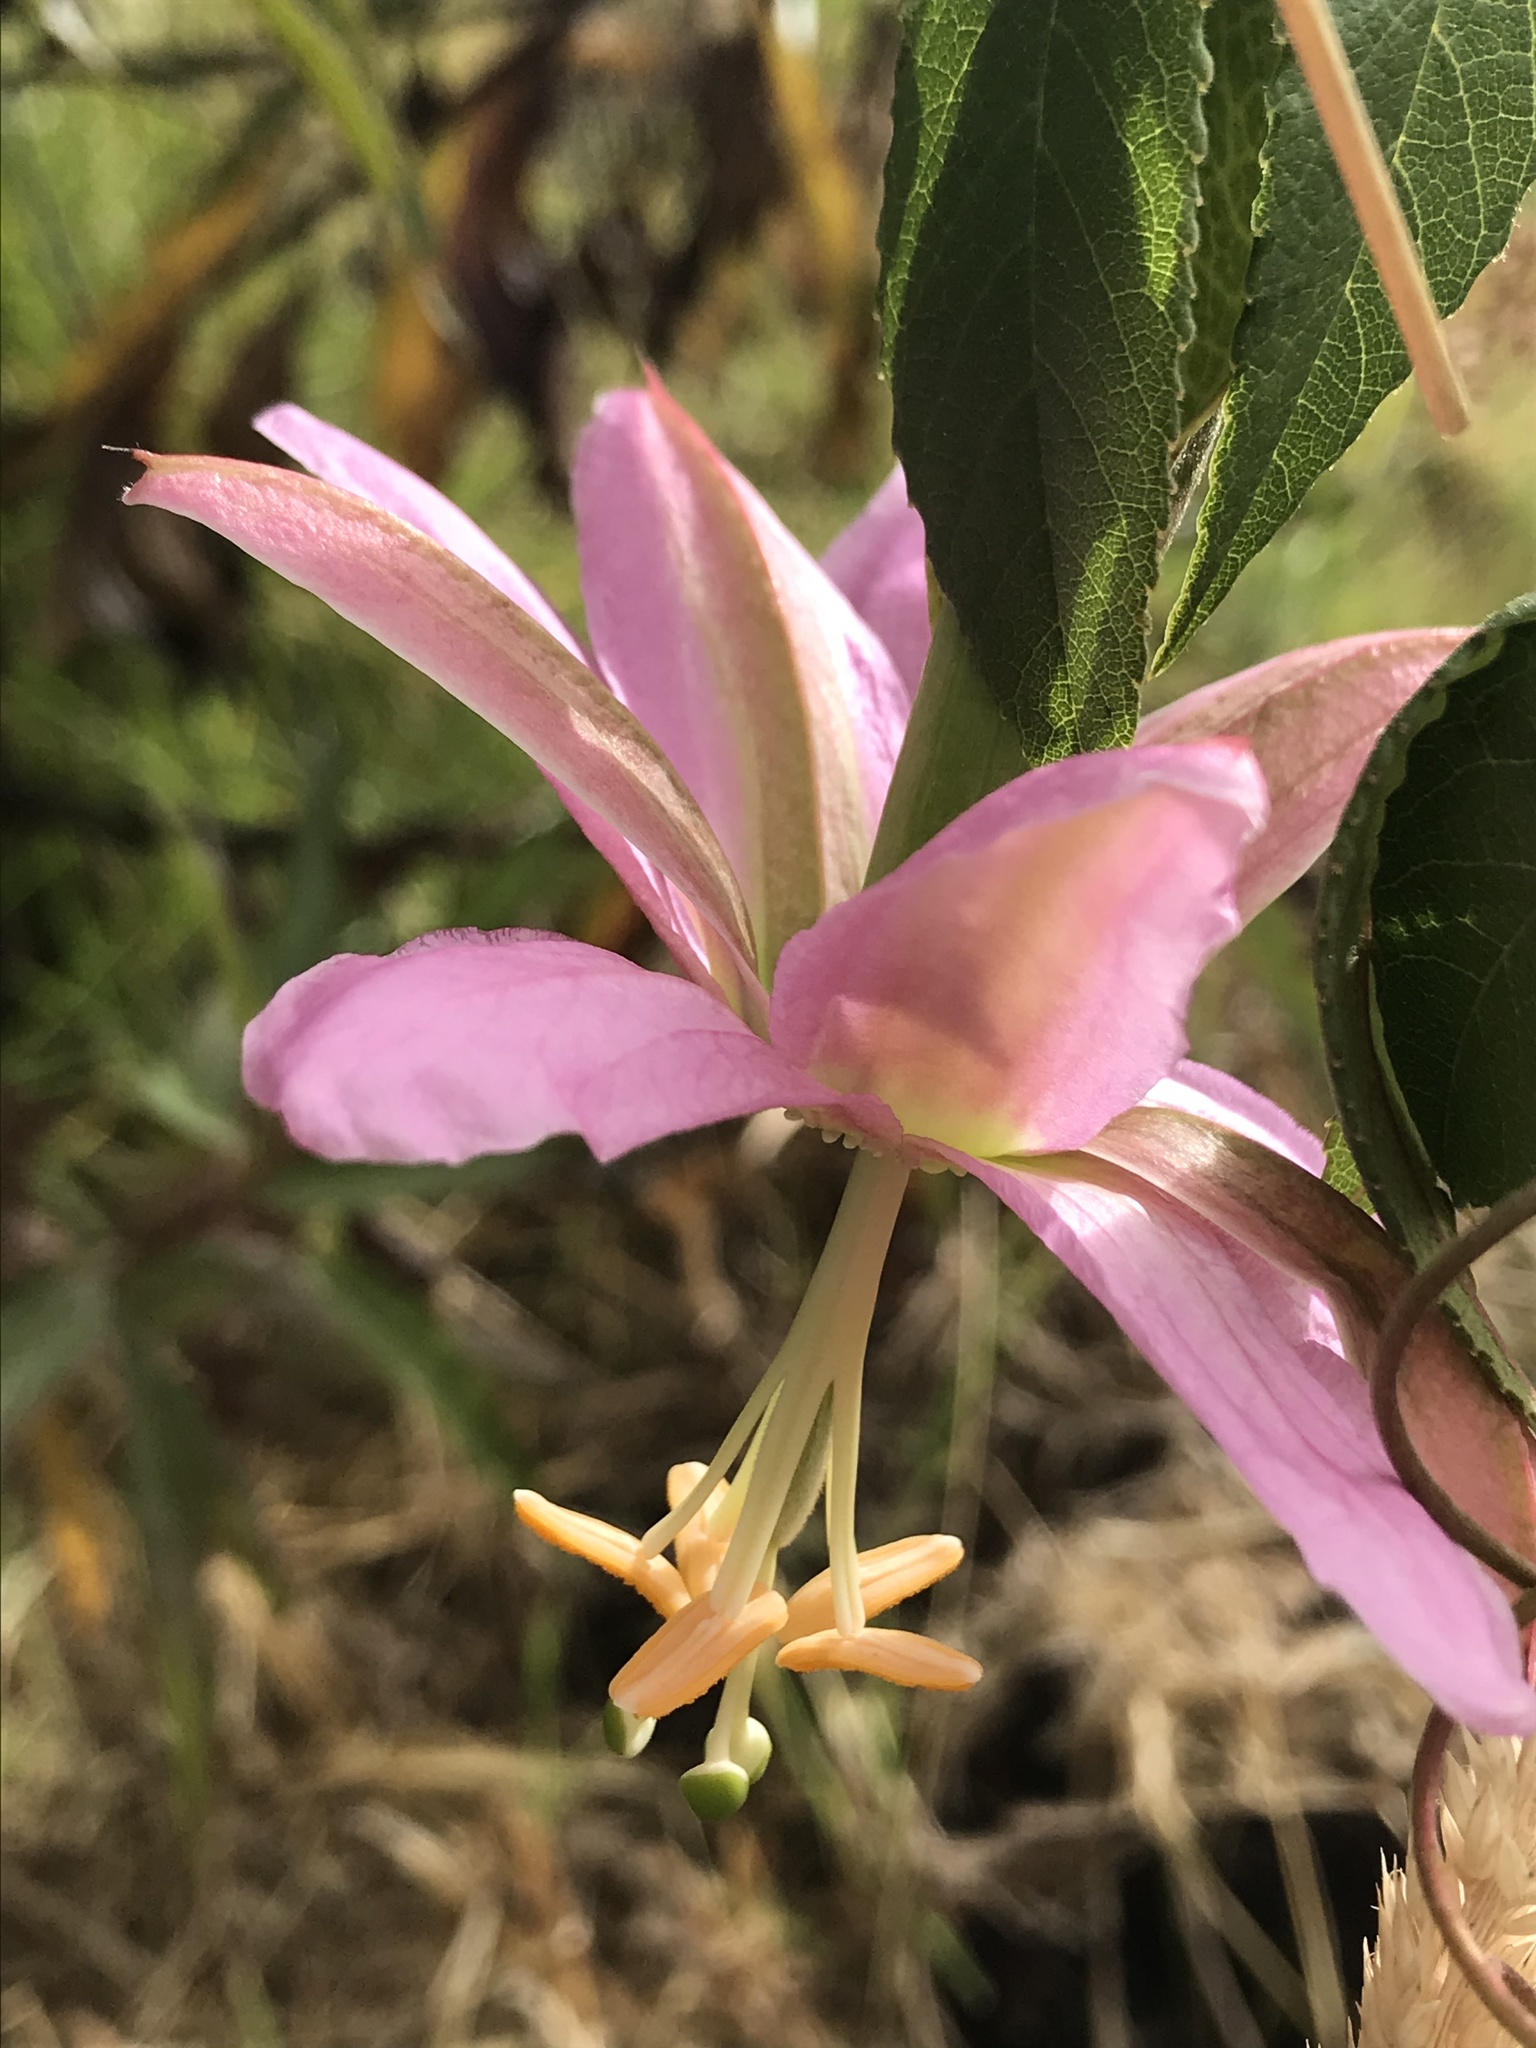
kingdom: Plantae
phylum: Tracheophyta
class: Magnoliopsida
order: Malpighiales
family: Passifloraceae
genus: Passiflora
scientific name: Passiflora tarminiana
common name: Banana poka
